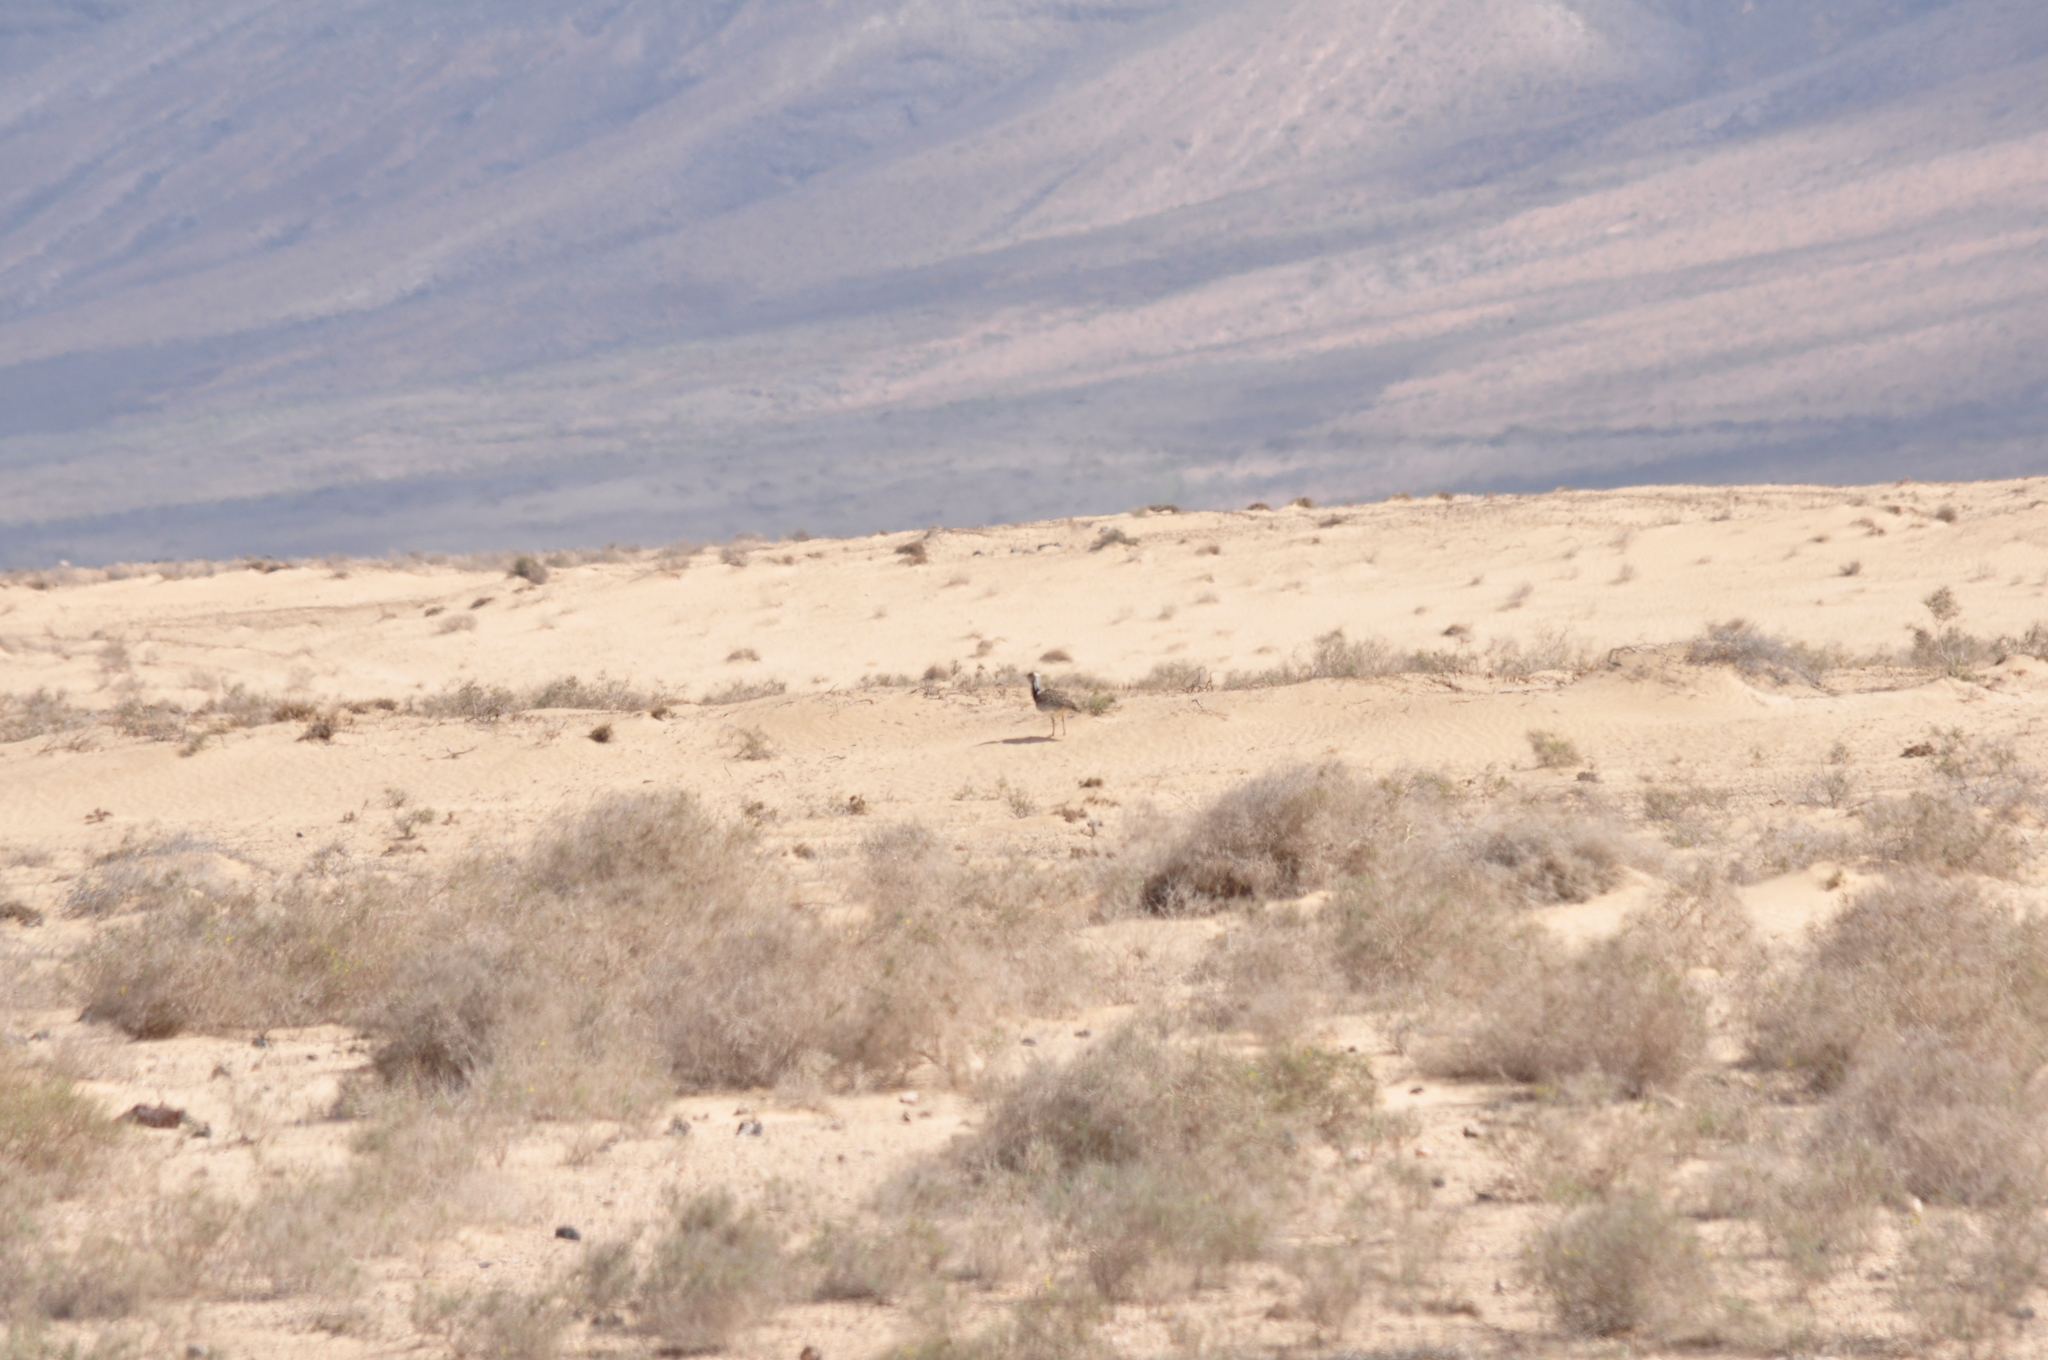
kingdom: Animalia
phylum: Chordata
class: Aves
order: Otidiformes
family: Otididae
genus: Chlamydotis
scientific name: Chlamydotis undulata
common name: Houbara bustard
